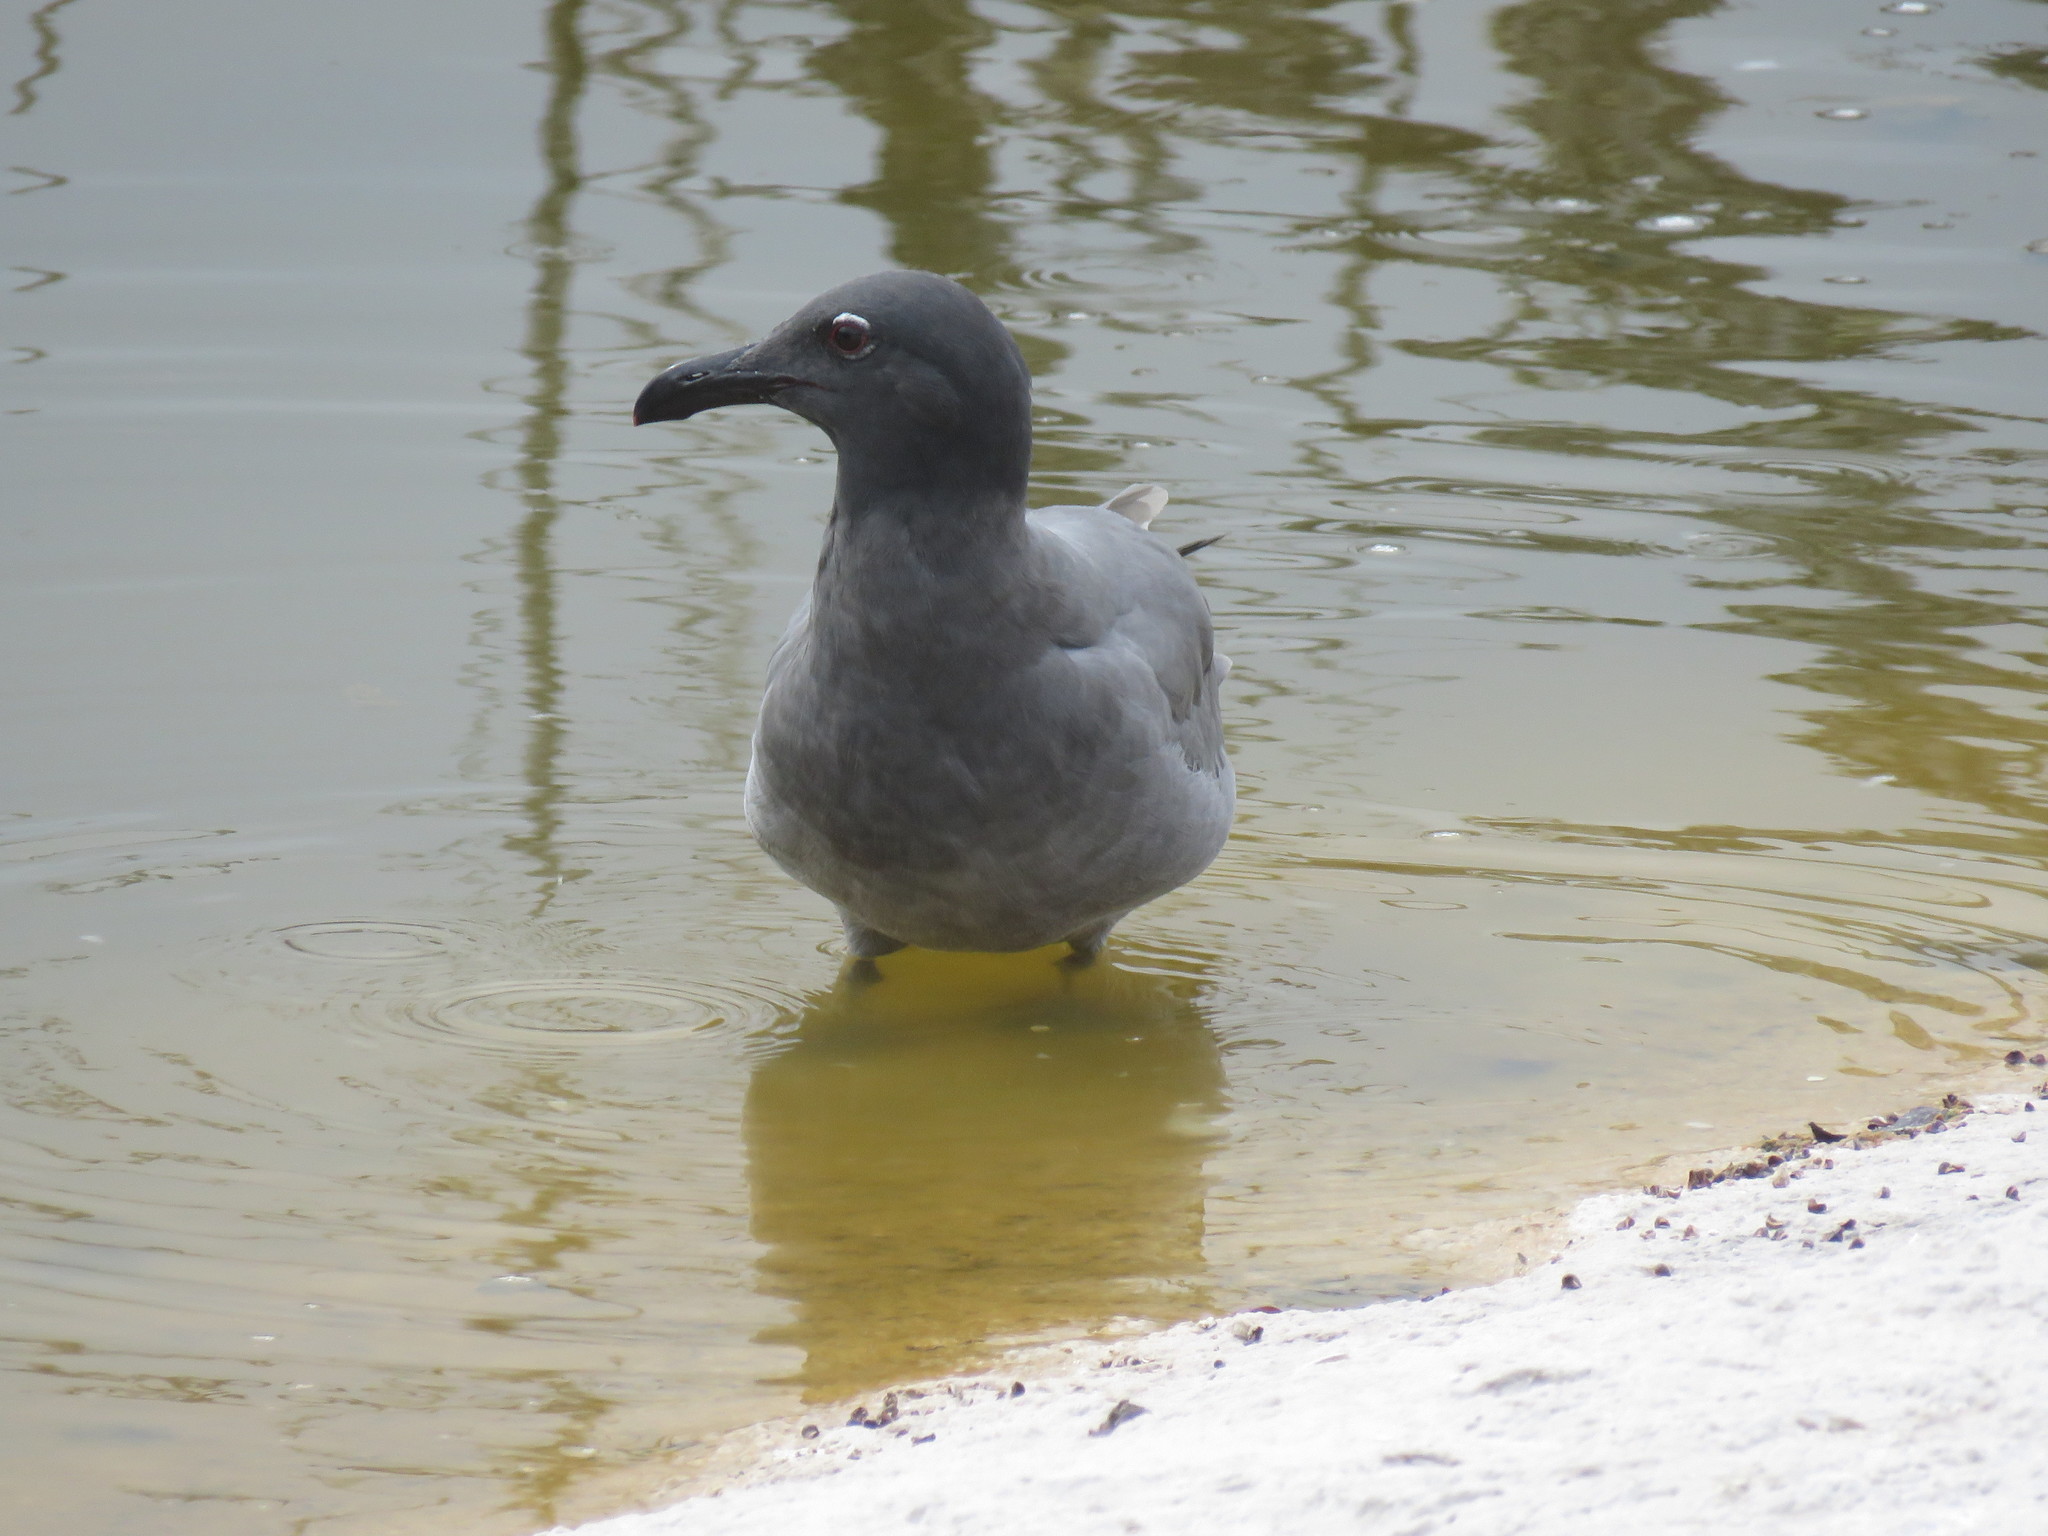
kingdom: Animalia
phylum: Chordata
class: Aves
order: Charadriiformes
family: Laridae
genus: Leucophaeus
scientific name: Leucophaeus fuliginosus
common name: Lava gull
